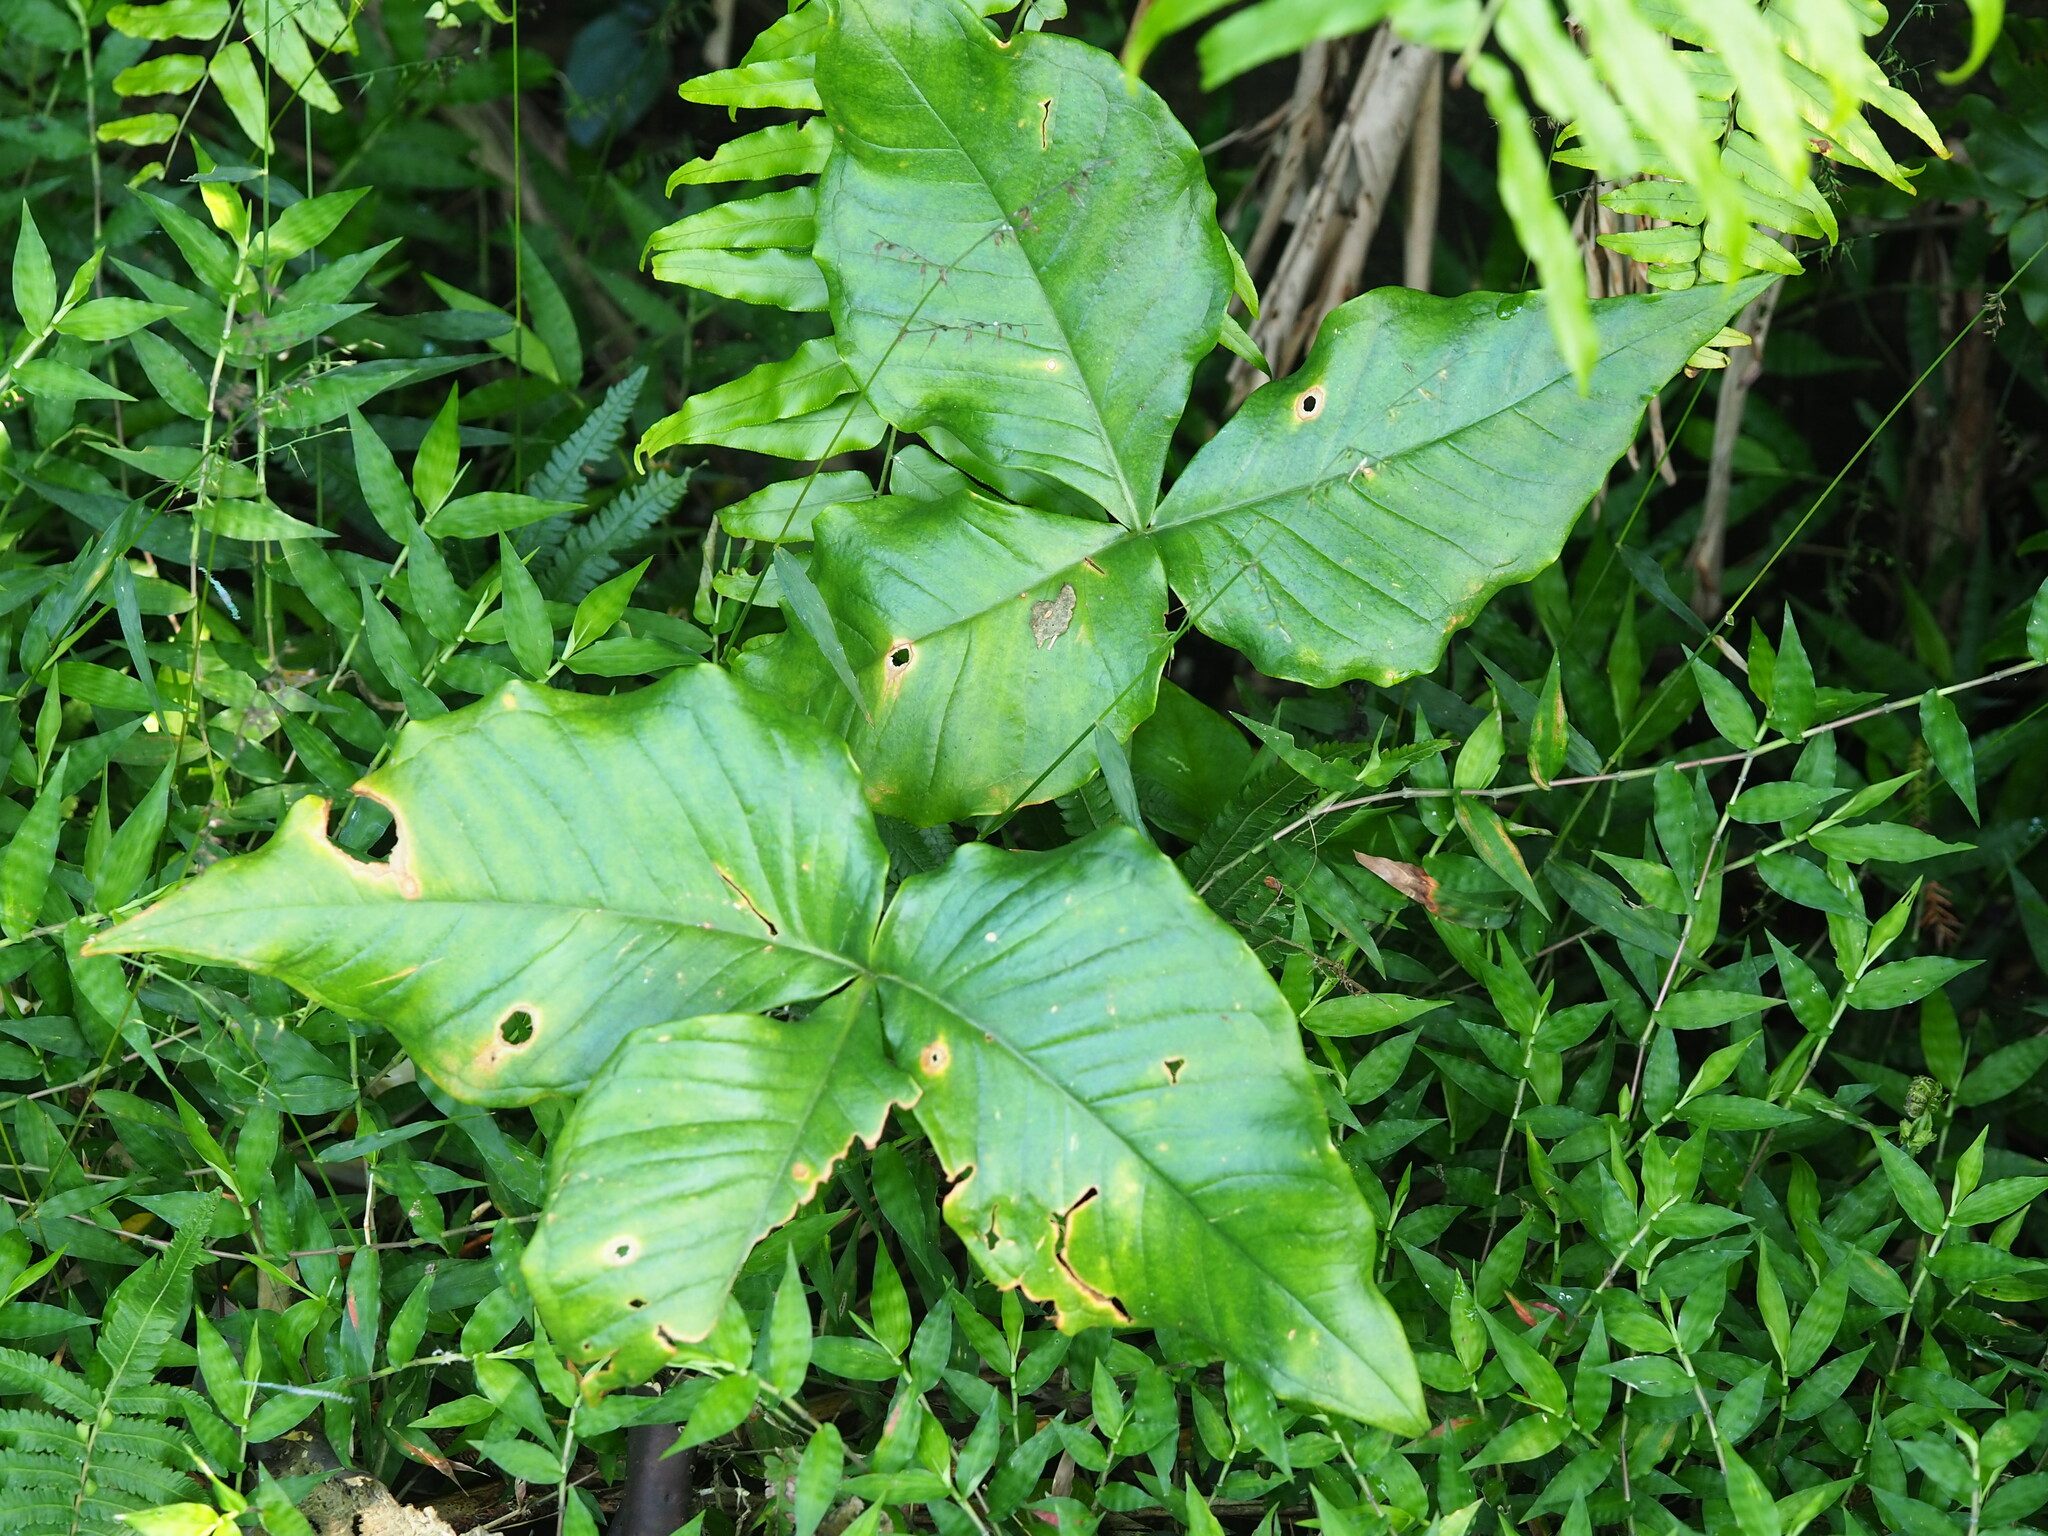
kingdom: Plantae
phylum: Tracheophyta
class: Liliopsida
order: Alismatales
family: Araceae
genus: Arisaema
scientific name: Arisaema ringens
